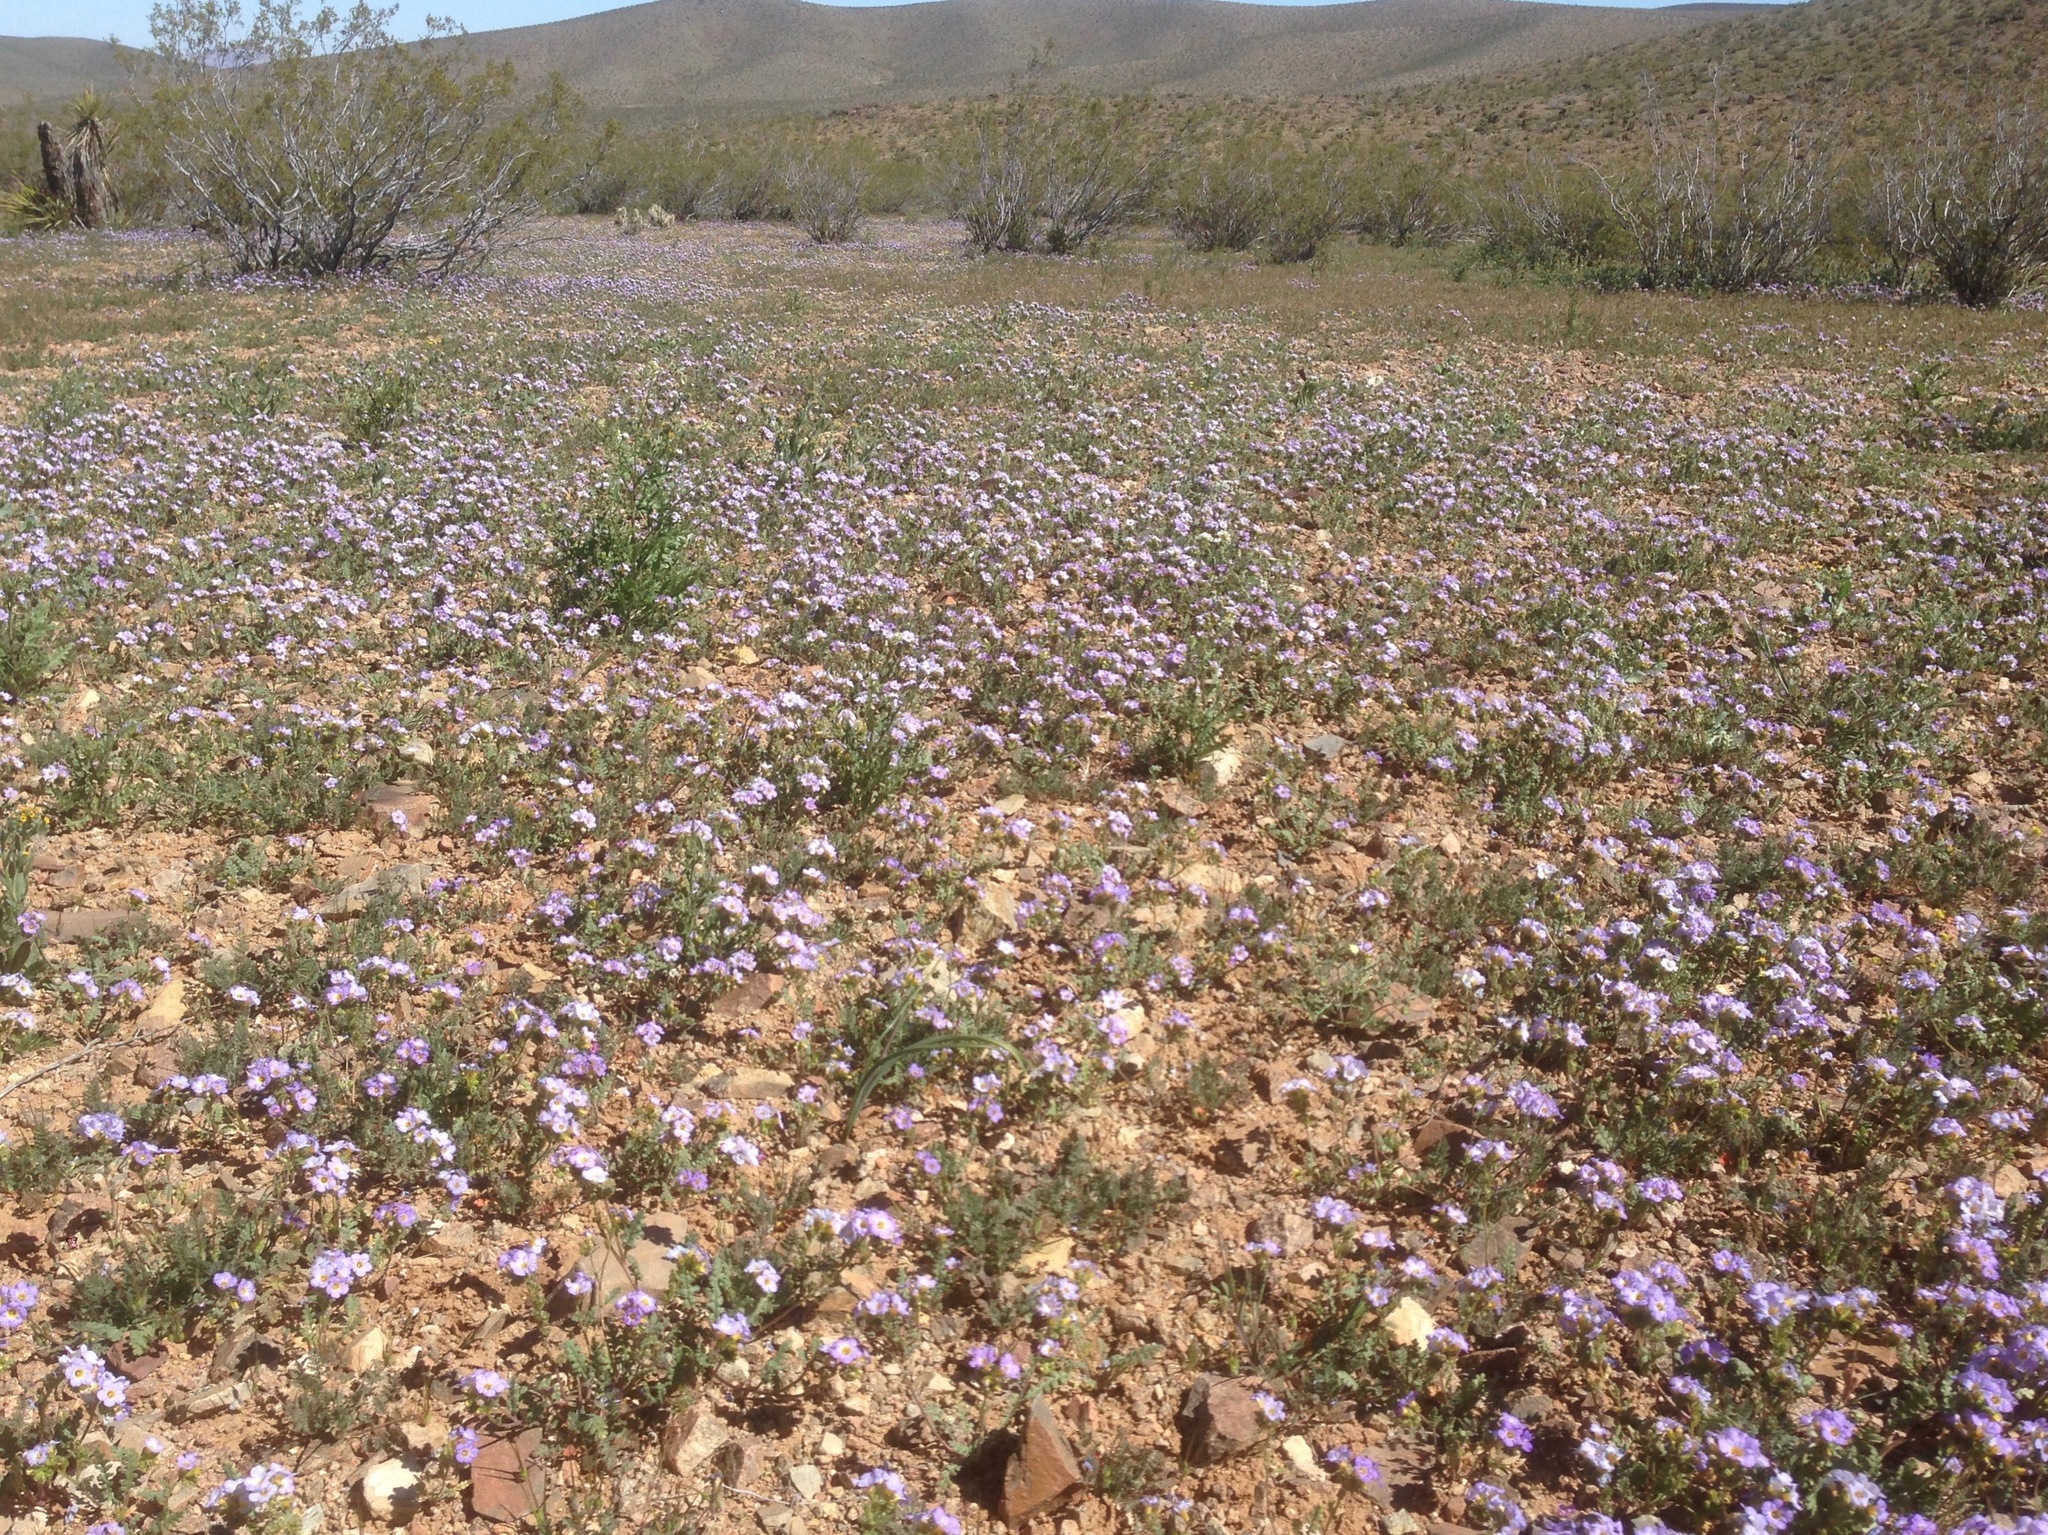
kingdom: Plantae
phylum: Tracheophyta
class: Magnoliopsida
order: Zygophyllales
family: Zygophyllaceae
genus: Larrea
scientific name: Larrea tridentata
